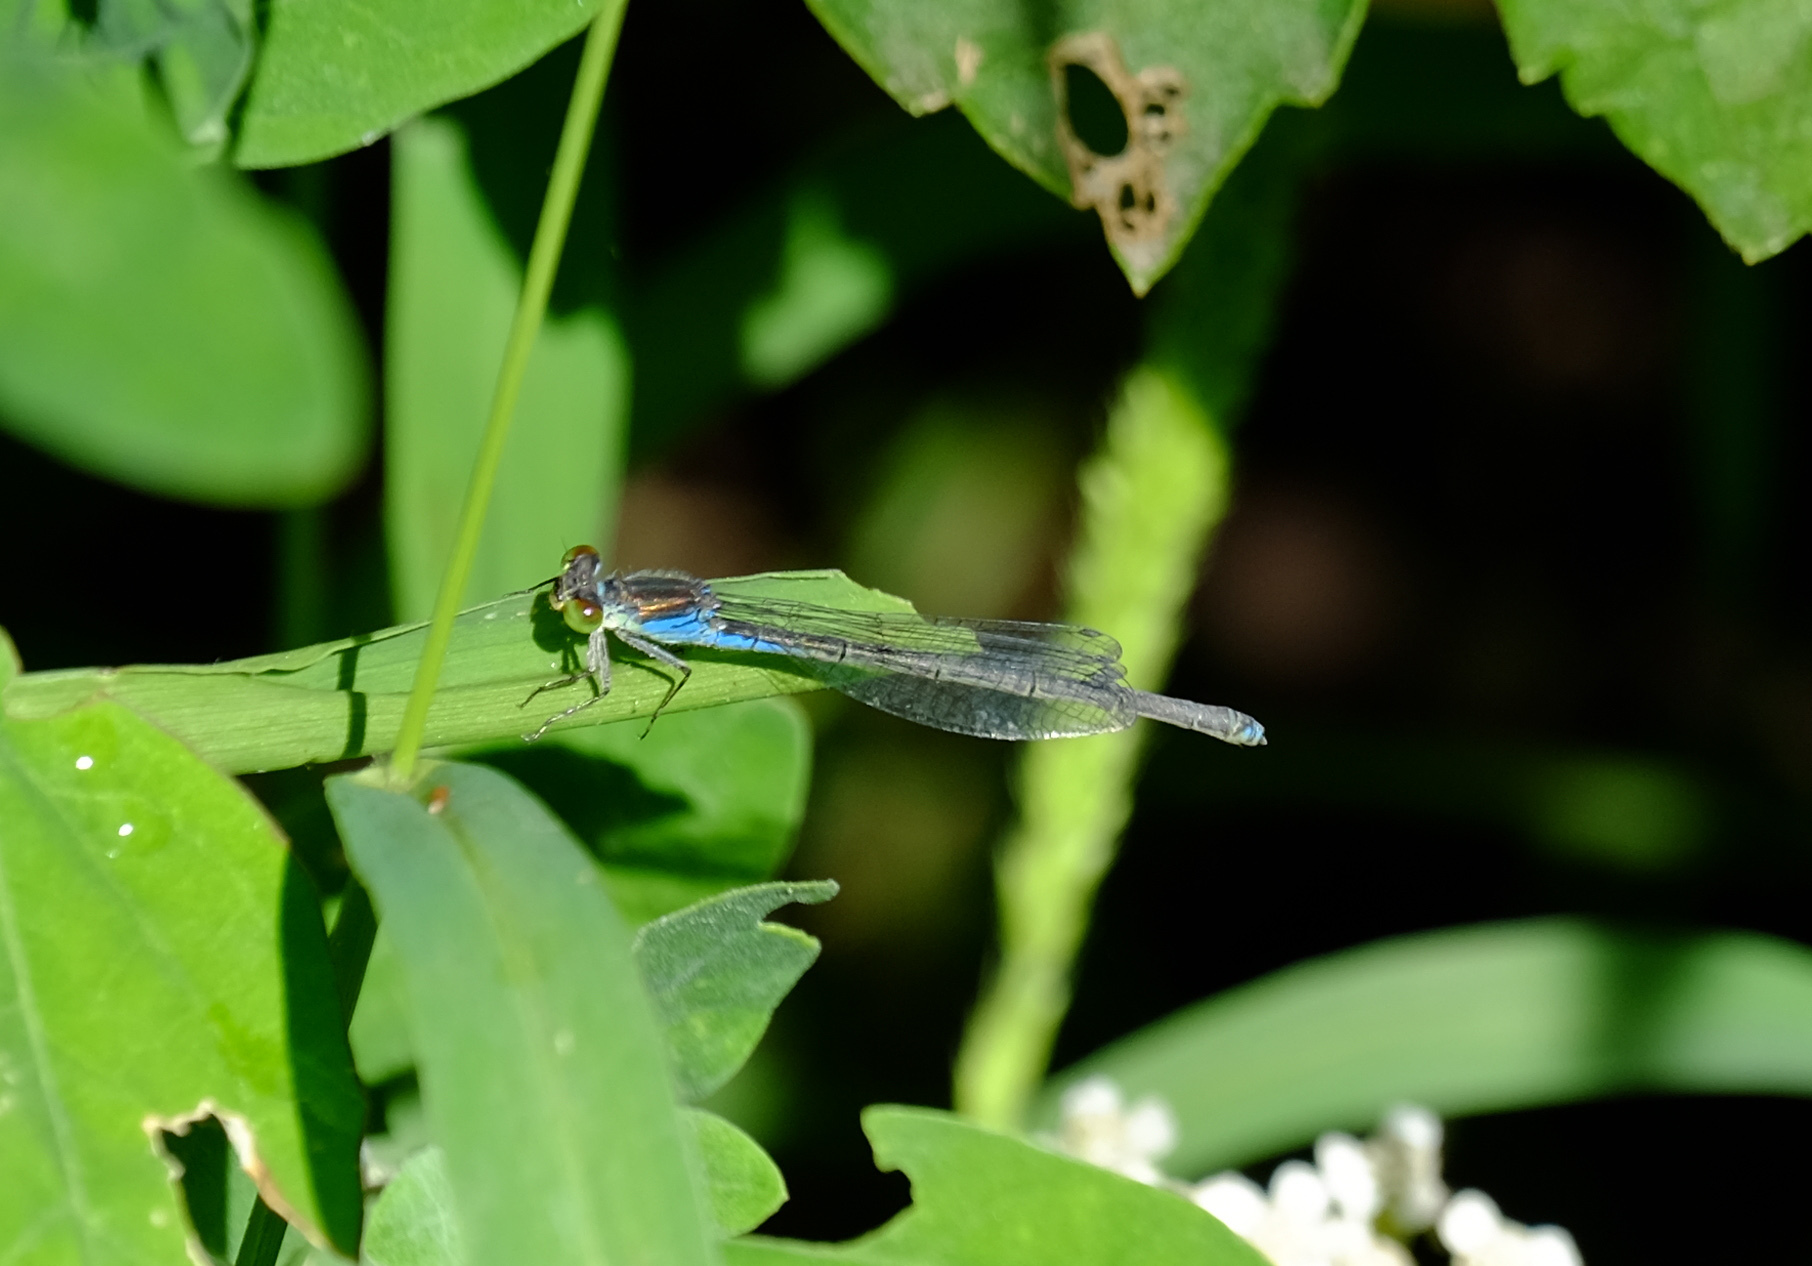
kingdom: Animalia
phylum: Arthropoda
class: Insecta
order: Odonata
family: Coenagrionidae
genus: Erythromma
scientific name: Erythromma viridulum
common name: Small red-eyed damselfly
